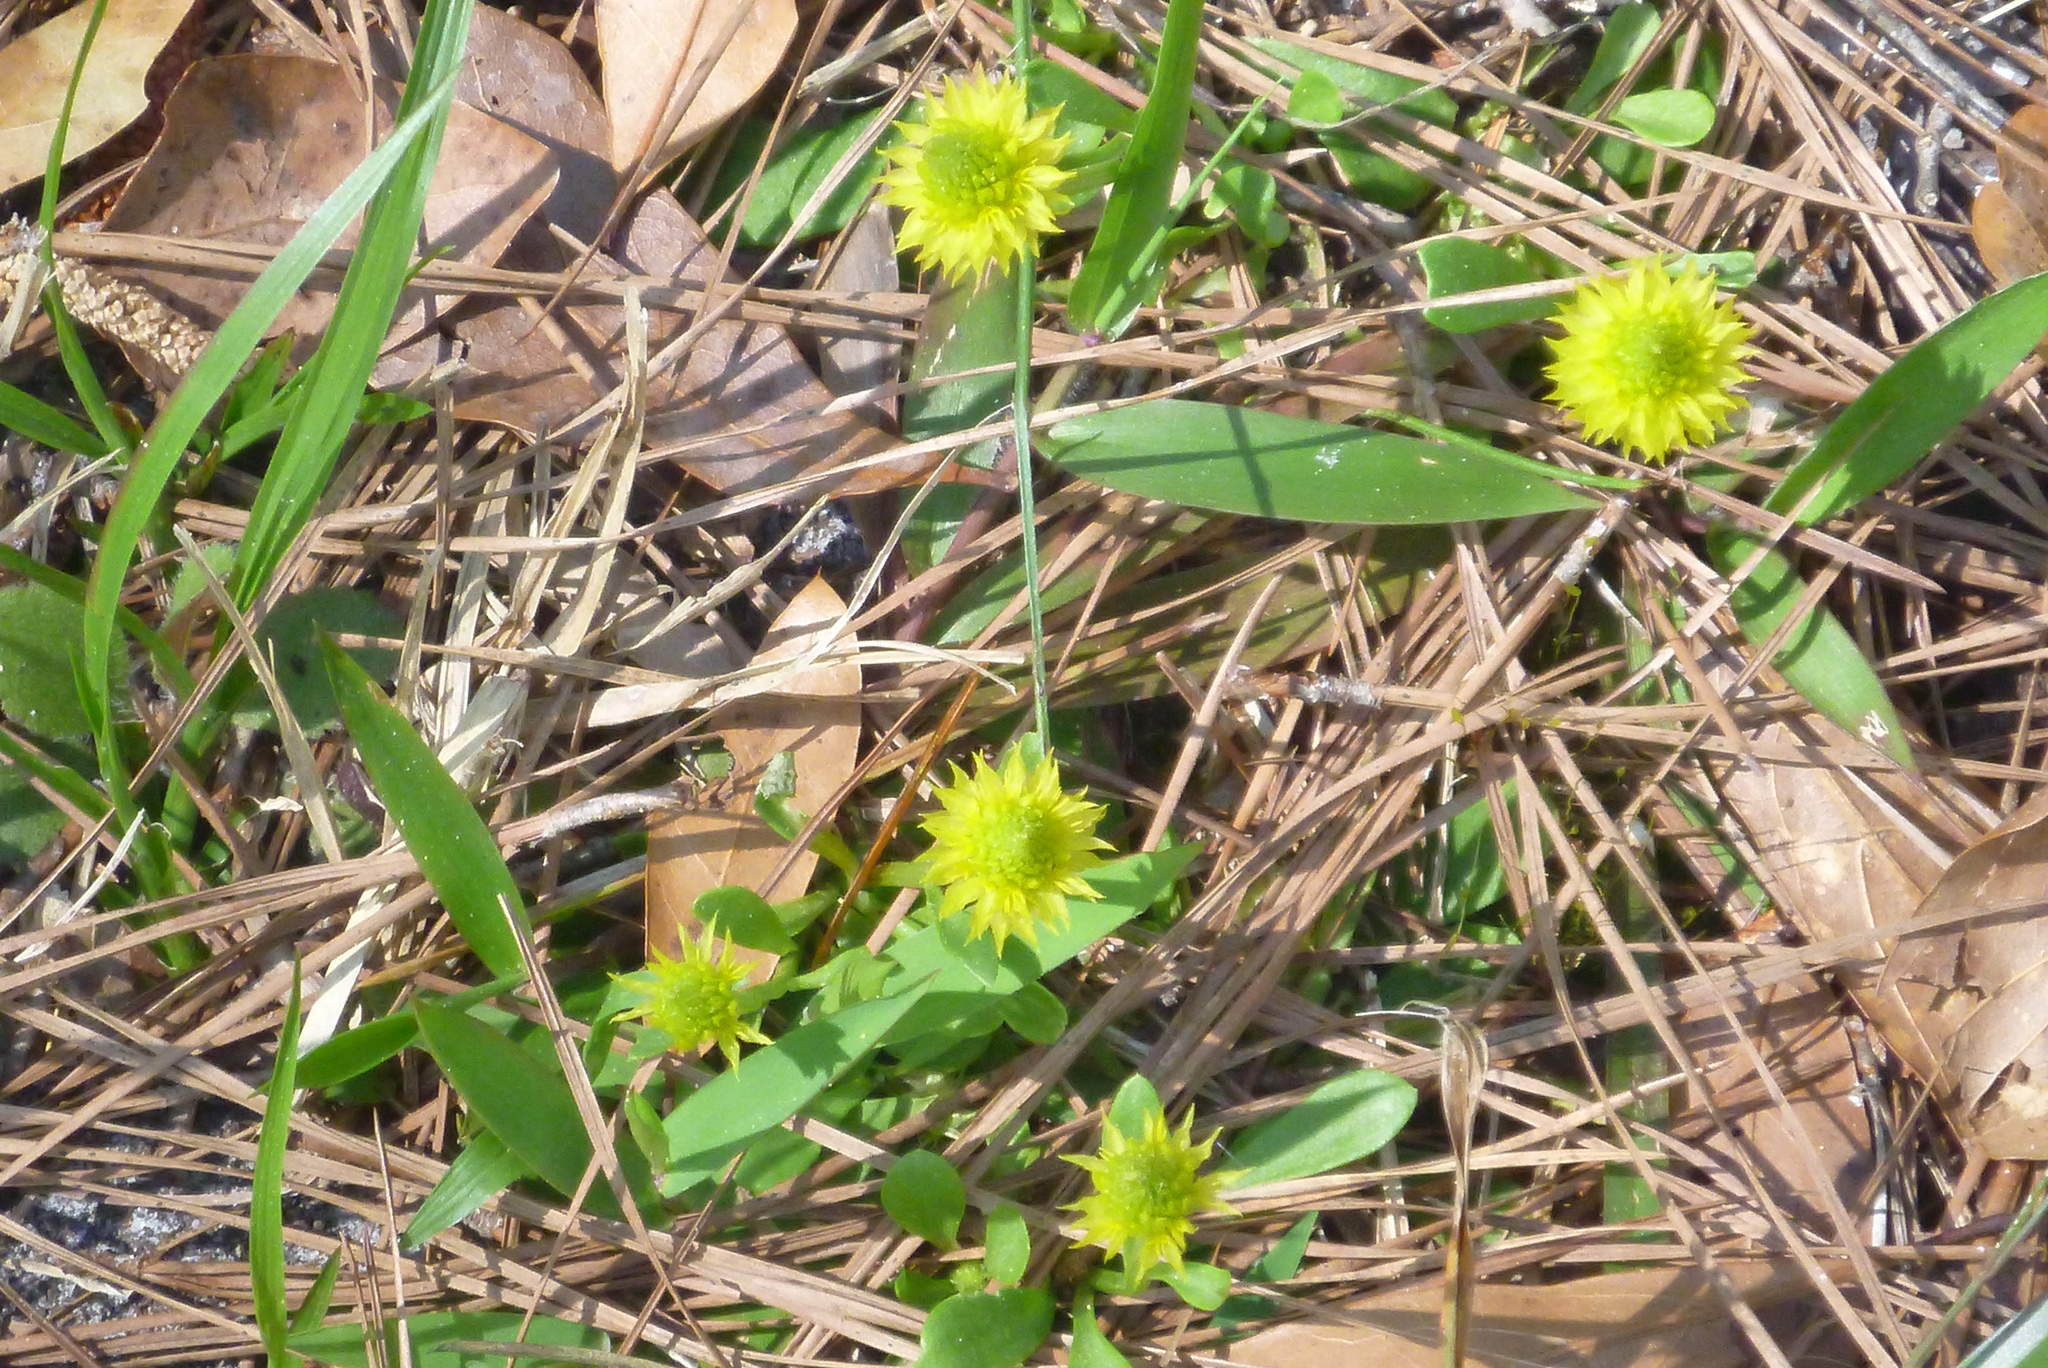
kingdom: Plantae
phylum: Tracheophyta
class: Magnoliopsida
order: Fabales
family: Polygalaceae
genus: Polygala
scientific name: Polygala nana
